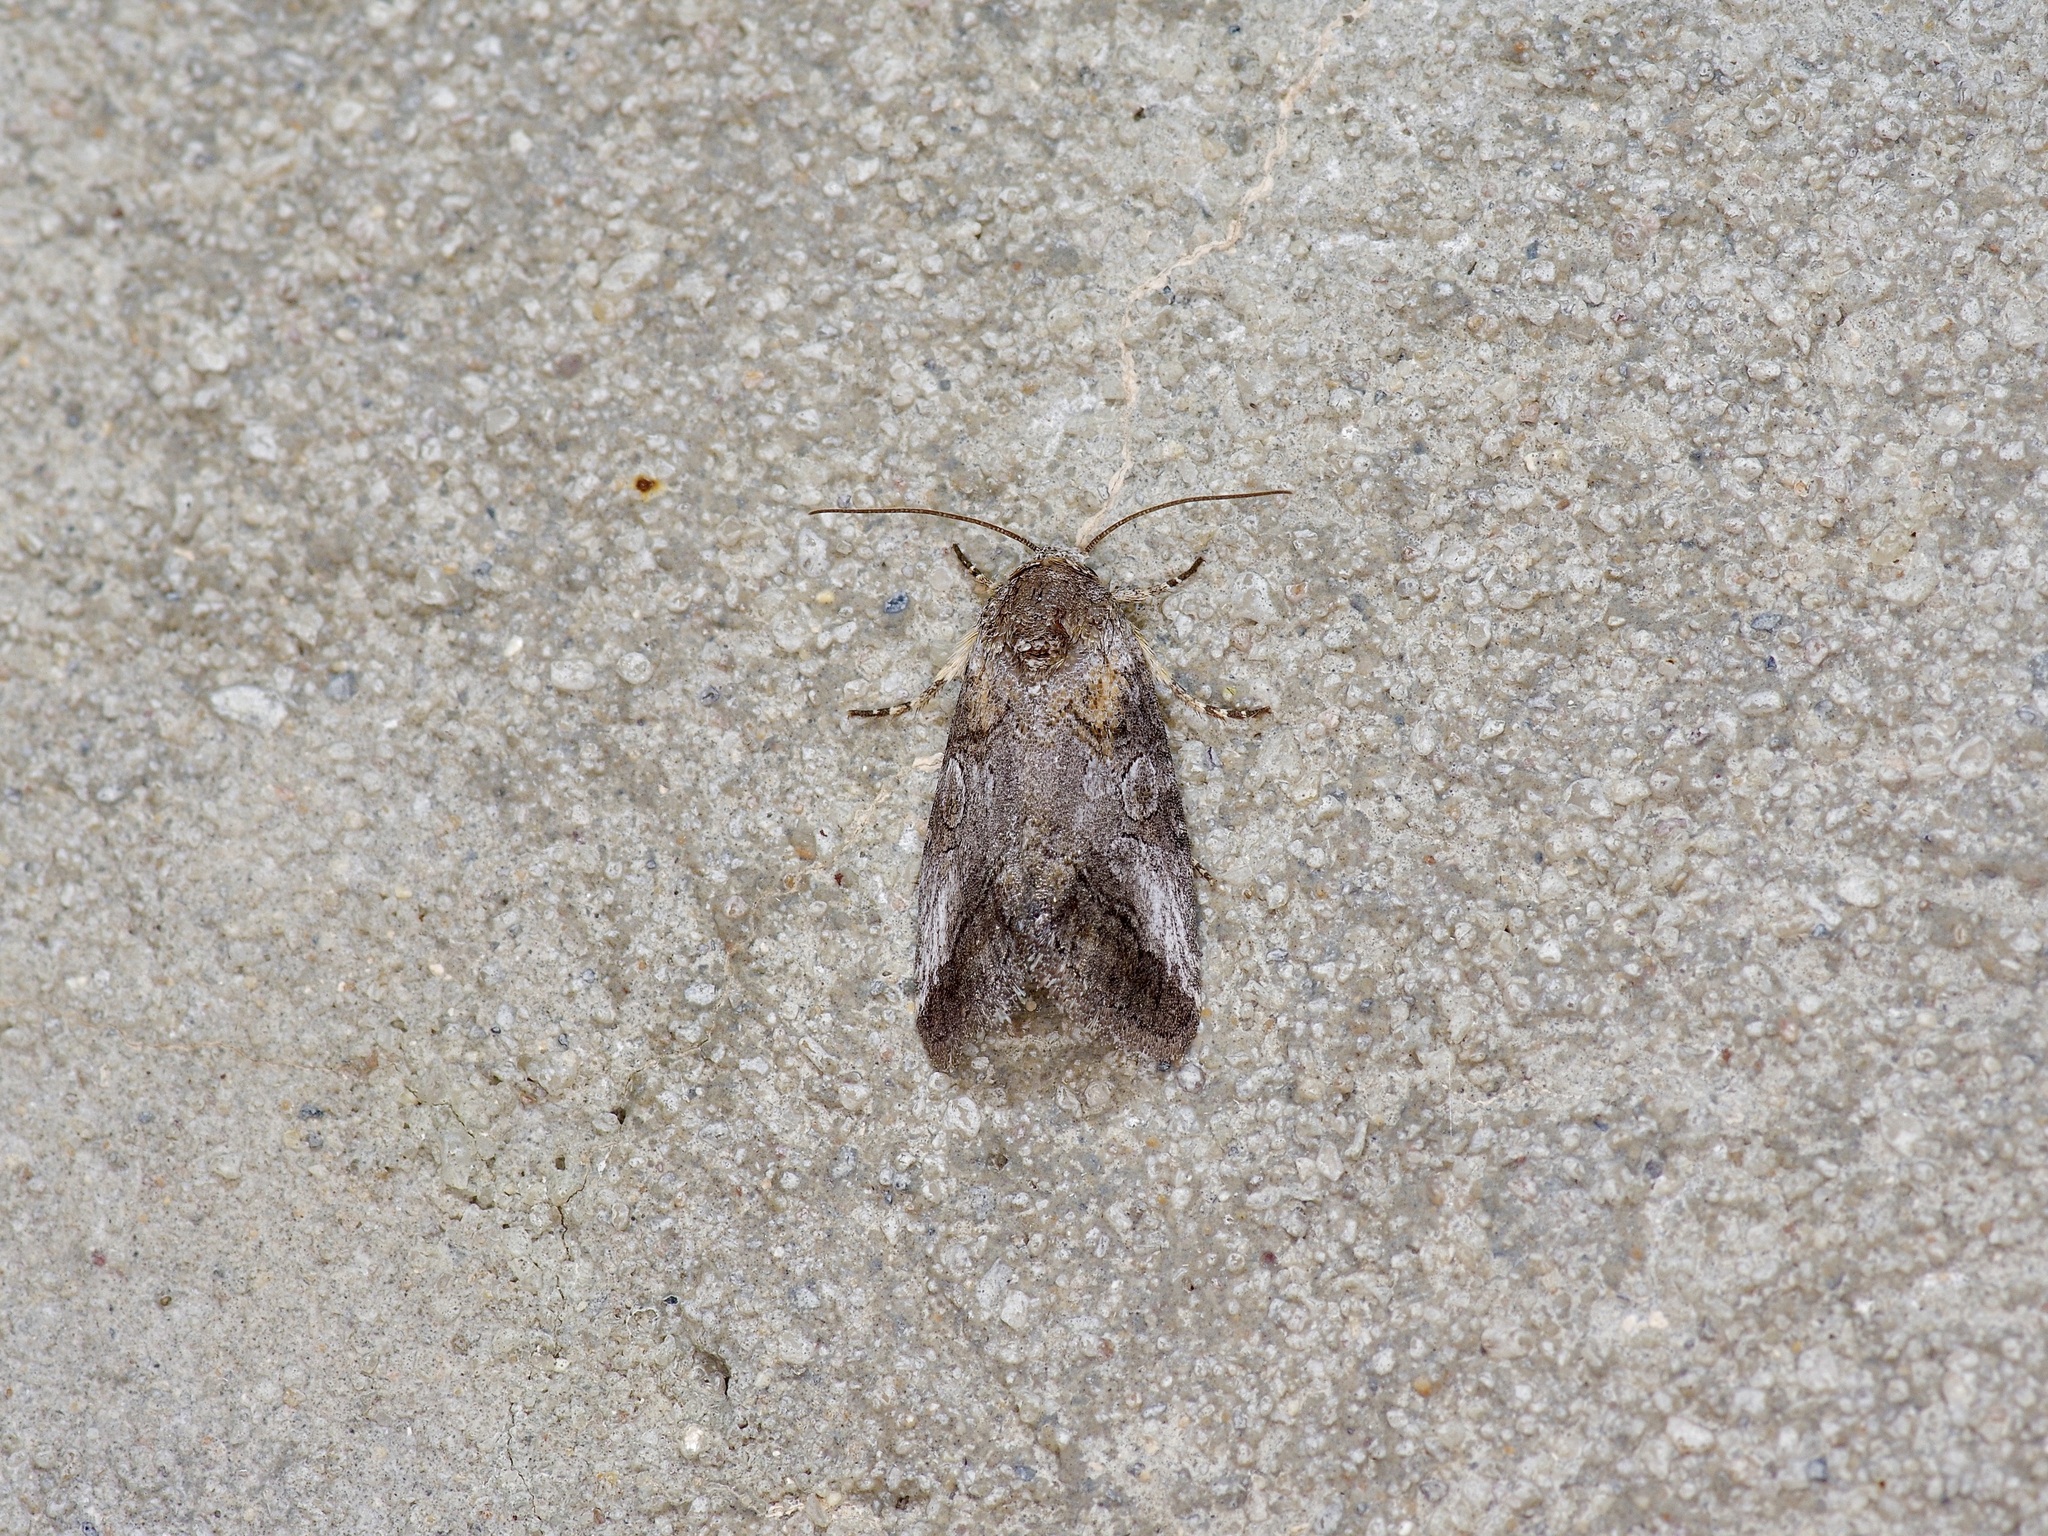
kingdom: Animalia
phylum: Arthropoda
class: Insecta
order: Lepidoptera
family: Noctuidae
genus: Aleptina
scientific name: Aleptina inca
